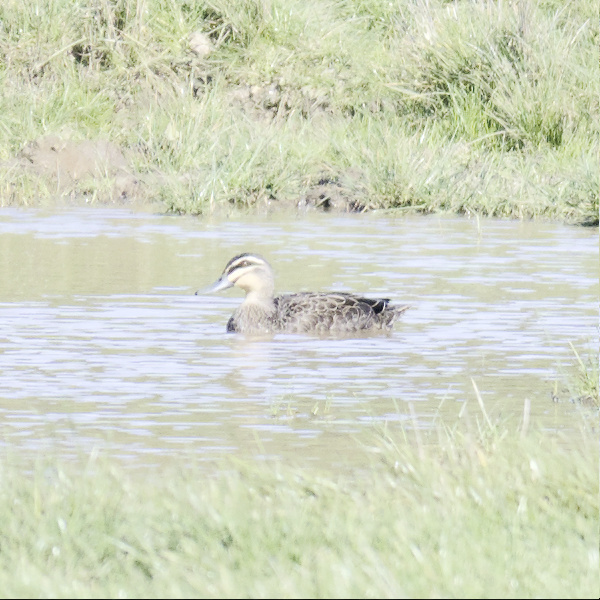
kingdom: Animalia
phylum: Chordata
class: Aves
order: Anseriformes
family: Anatidae
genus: Anas
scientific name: Anas superciliosa
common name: Pacific black duck
